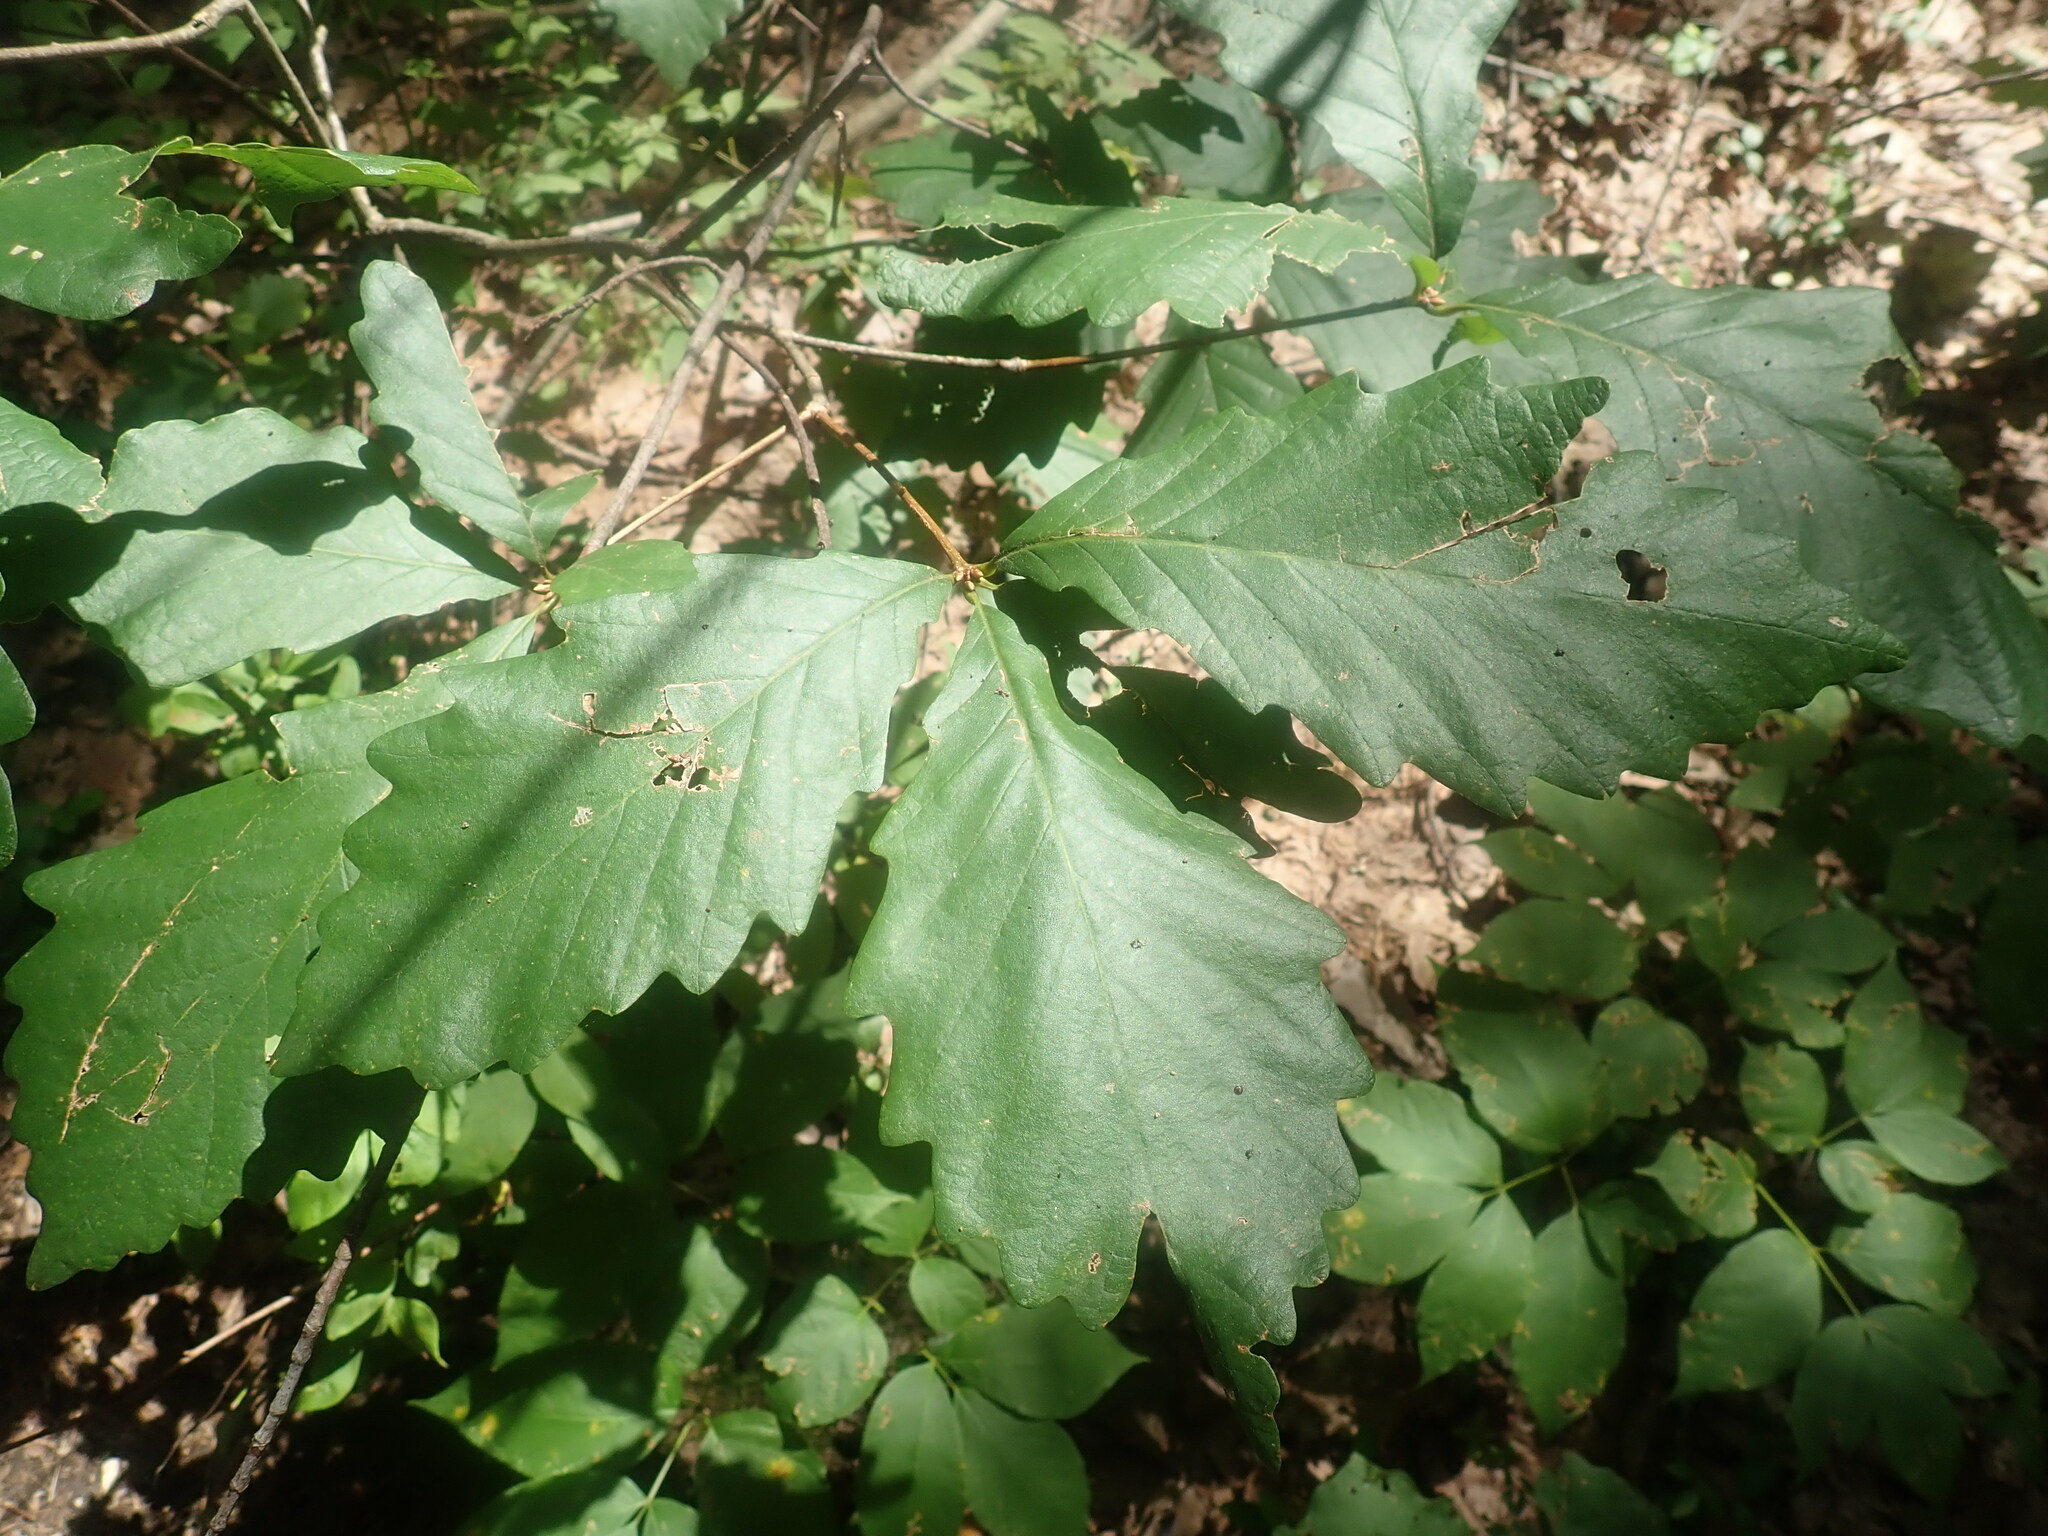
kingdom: Plantae
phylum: Tracheophyta
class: Magnoliopsida
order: Fagales
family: Fagaceae
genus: Quercus
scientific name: Quercus montana
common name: Chestnut oak
